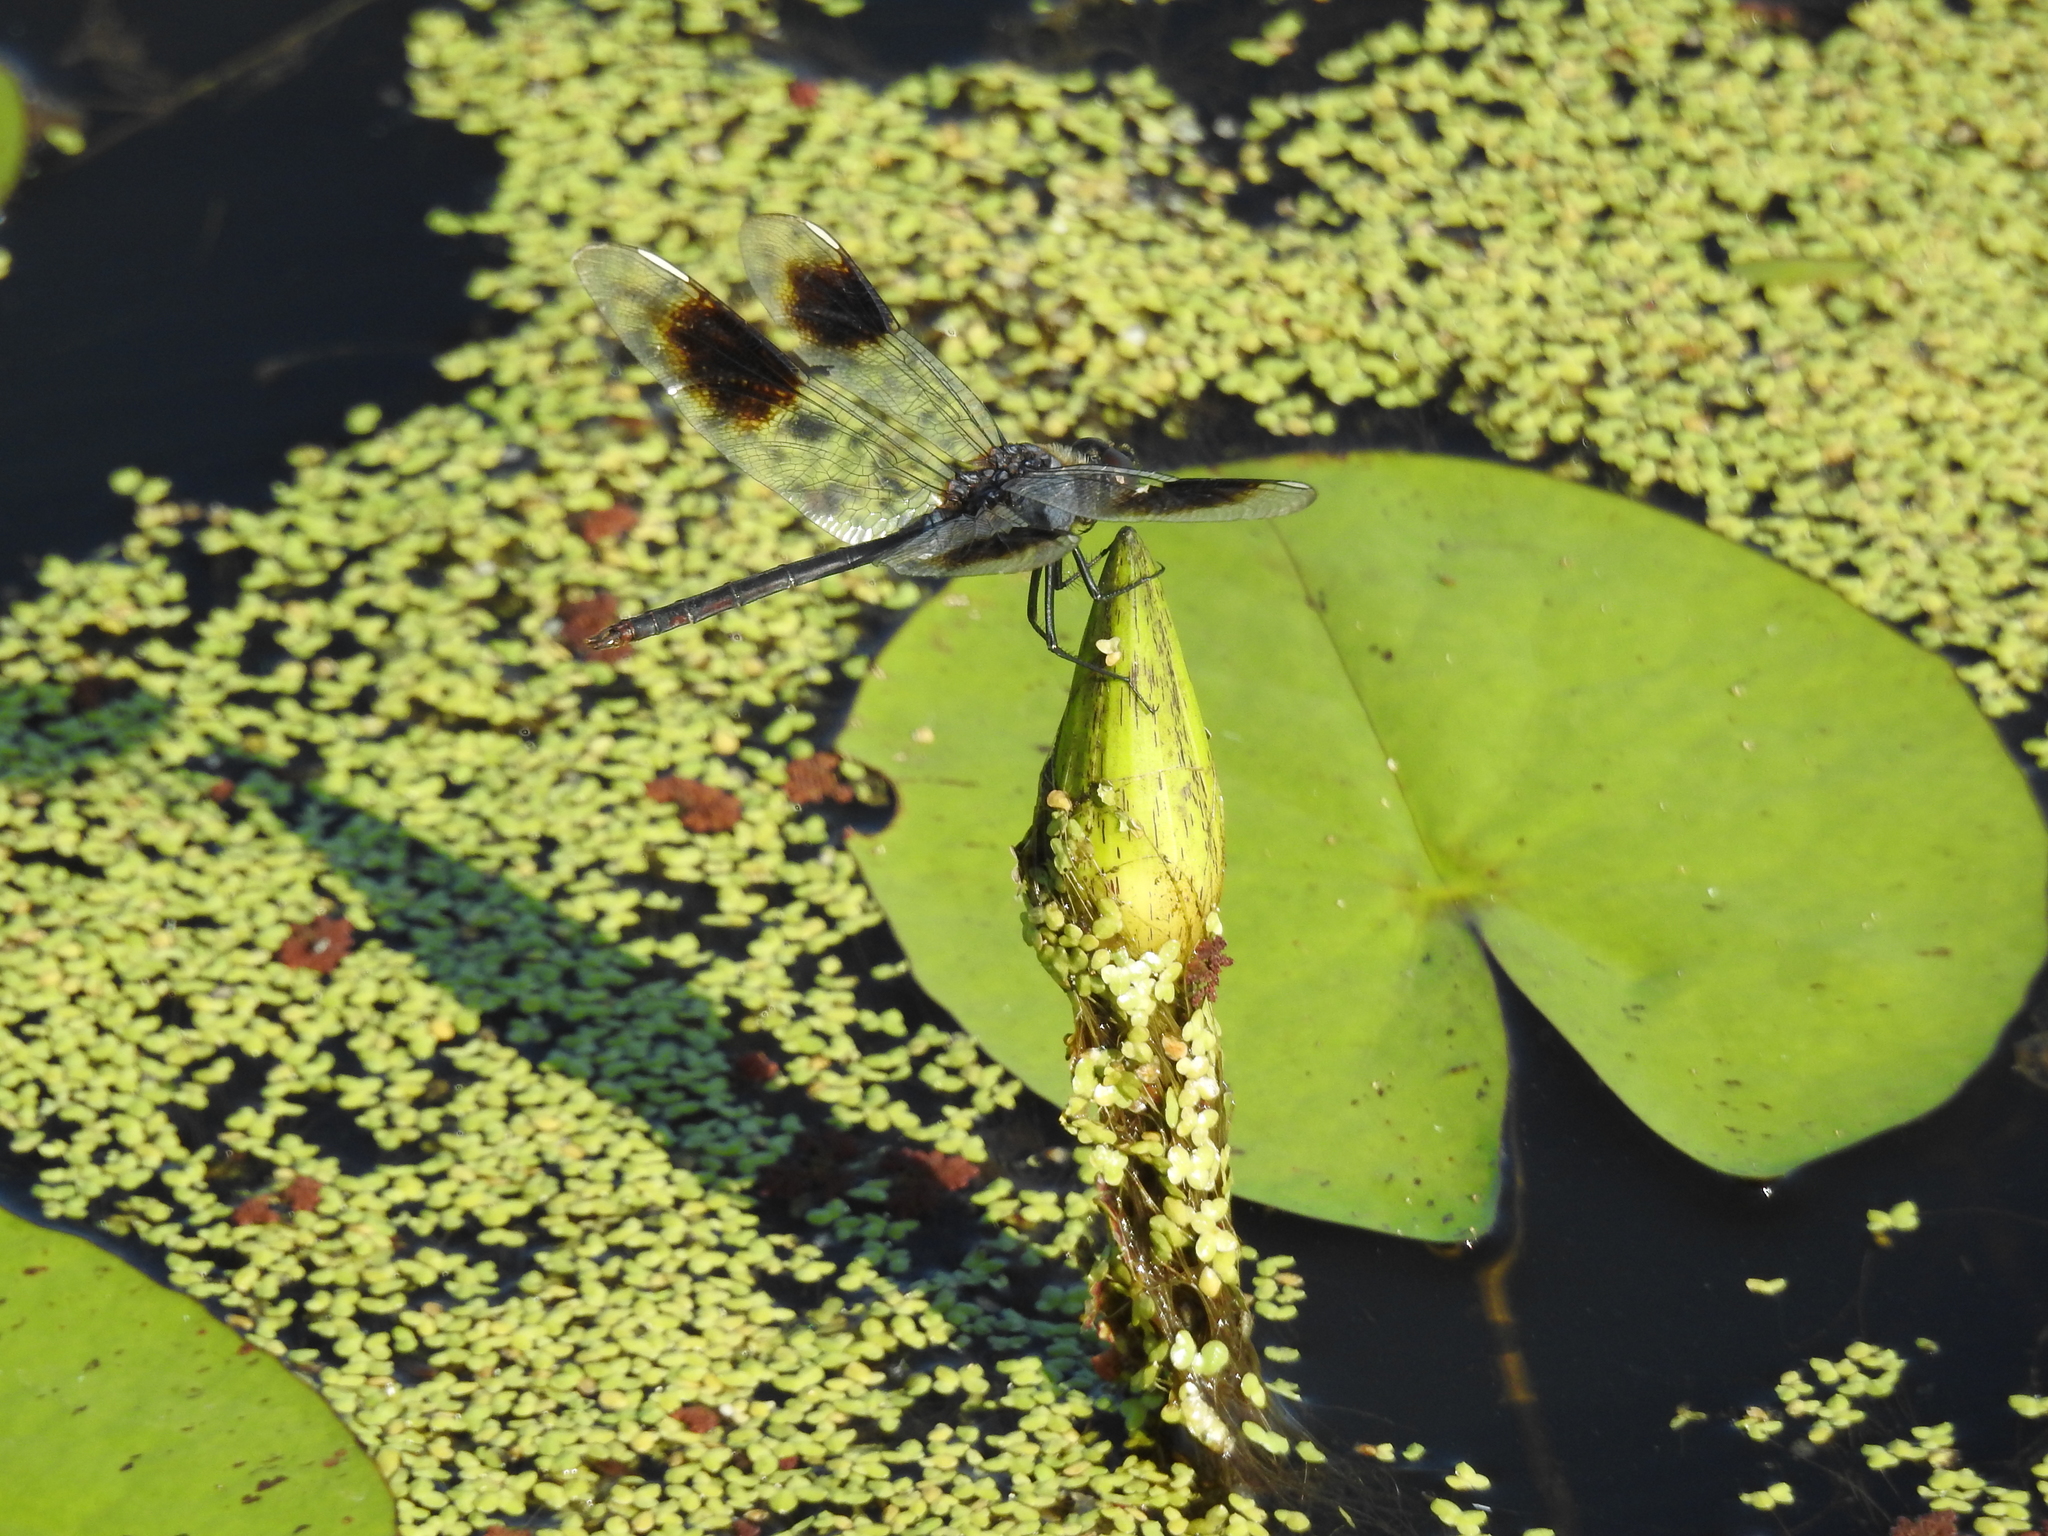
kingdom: Animalia
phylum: Arthropoda
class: Insecta
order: Odonata
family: Libellulidae
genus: Brachymesia
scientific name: Brachymesia gravida
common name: Four-spotted pennant
